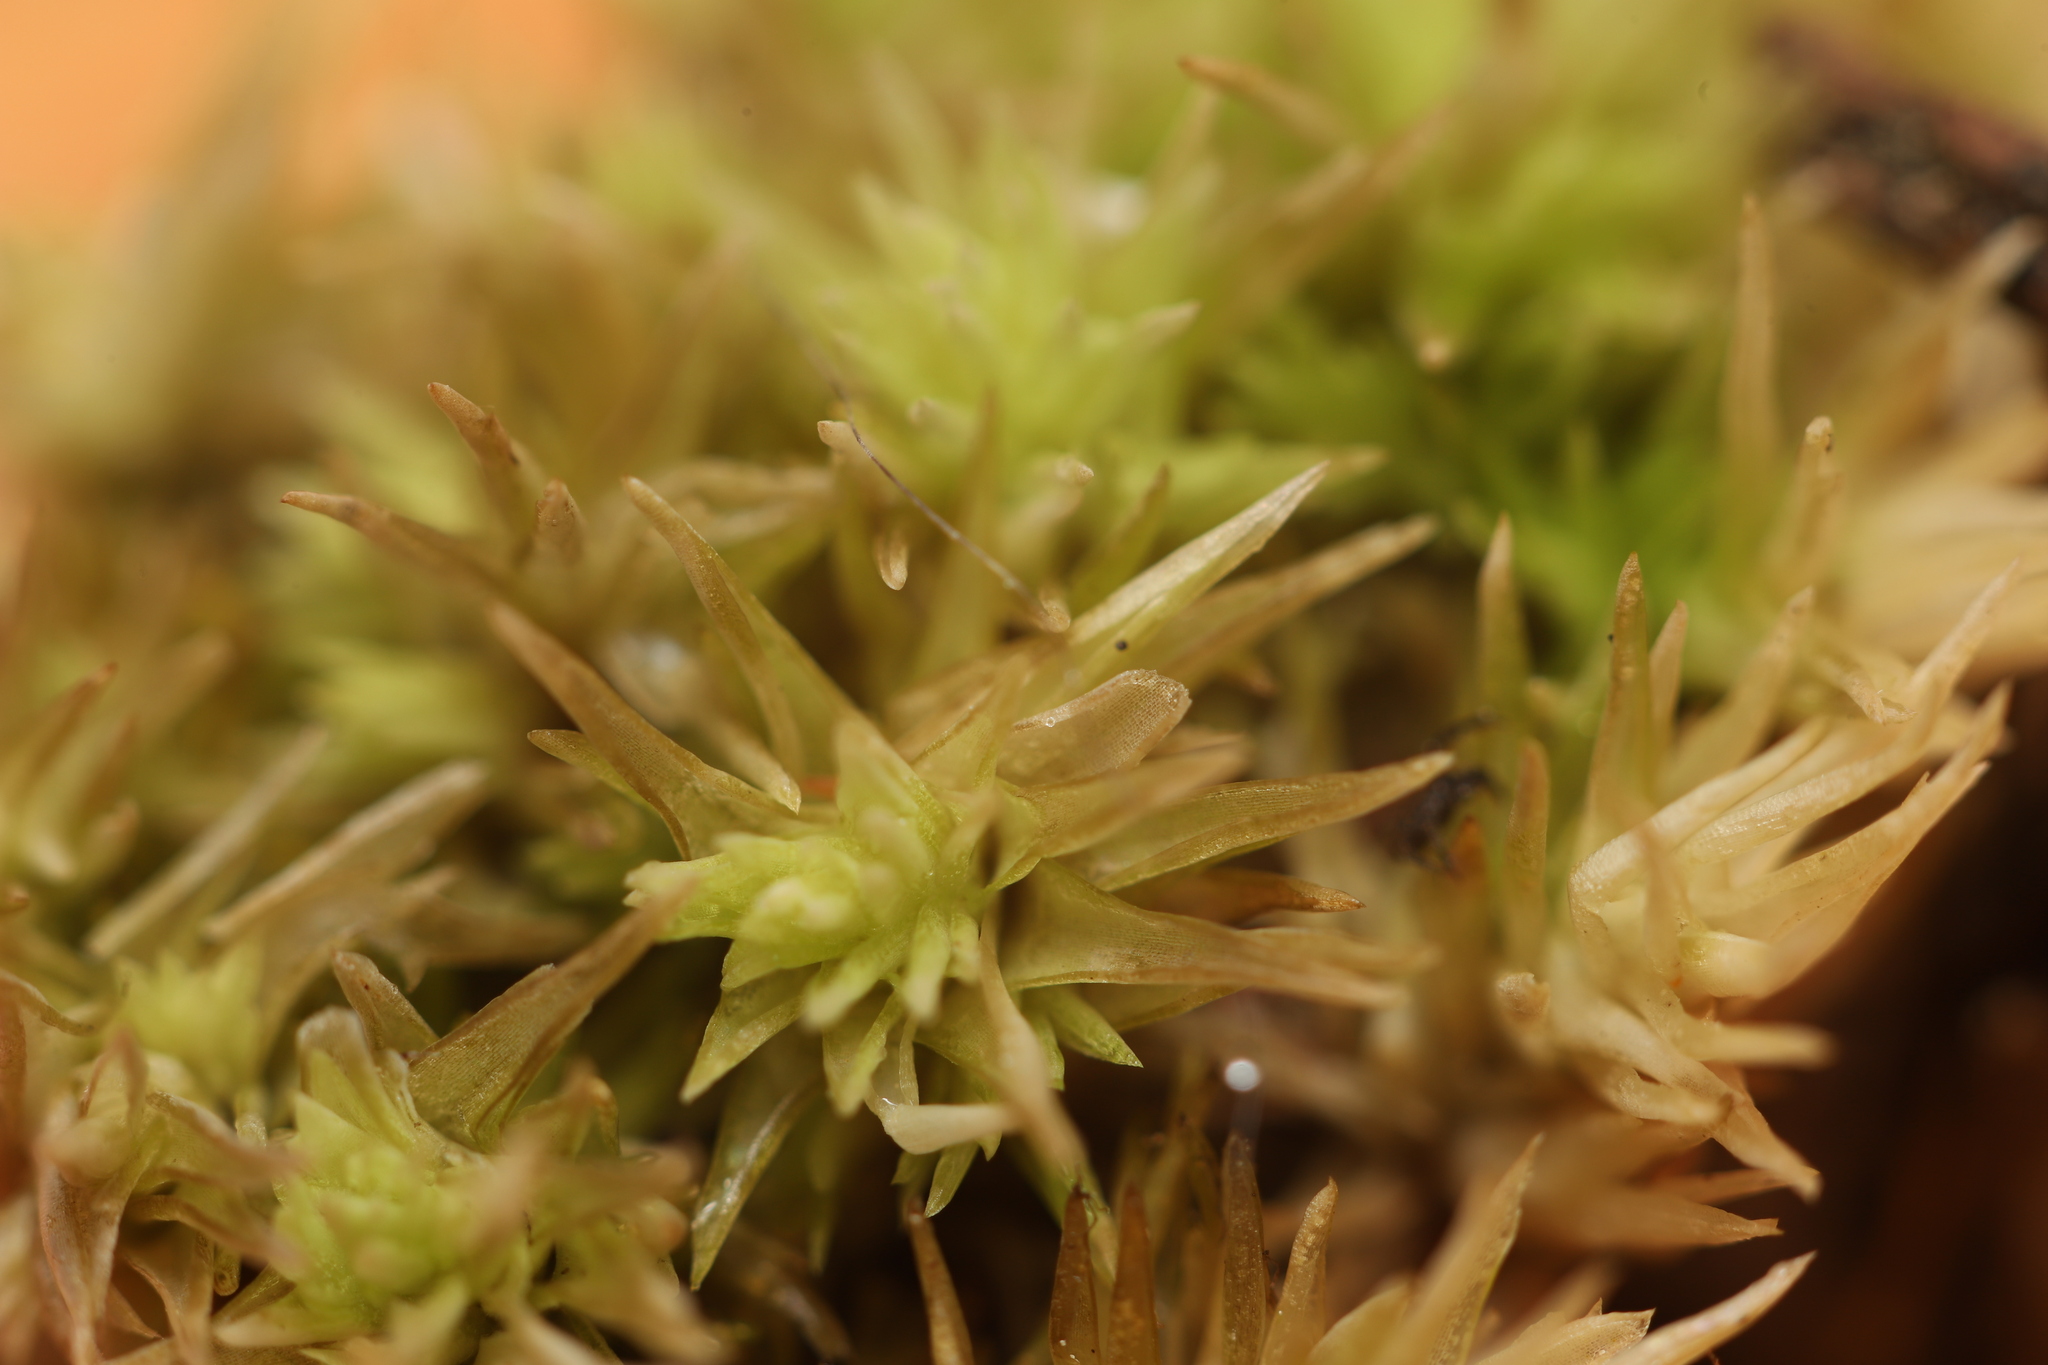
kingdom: Plantae
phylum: Bryophyta
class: Bryopsida
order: Dicranales
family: Leucobryaceae
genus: Leucobryum
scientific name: Leucobryum albidum
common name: White moss
